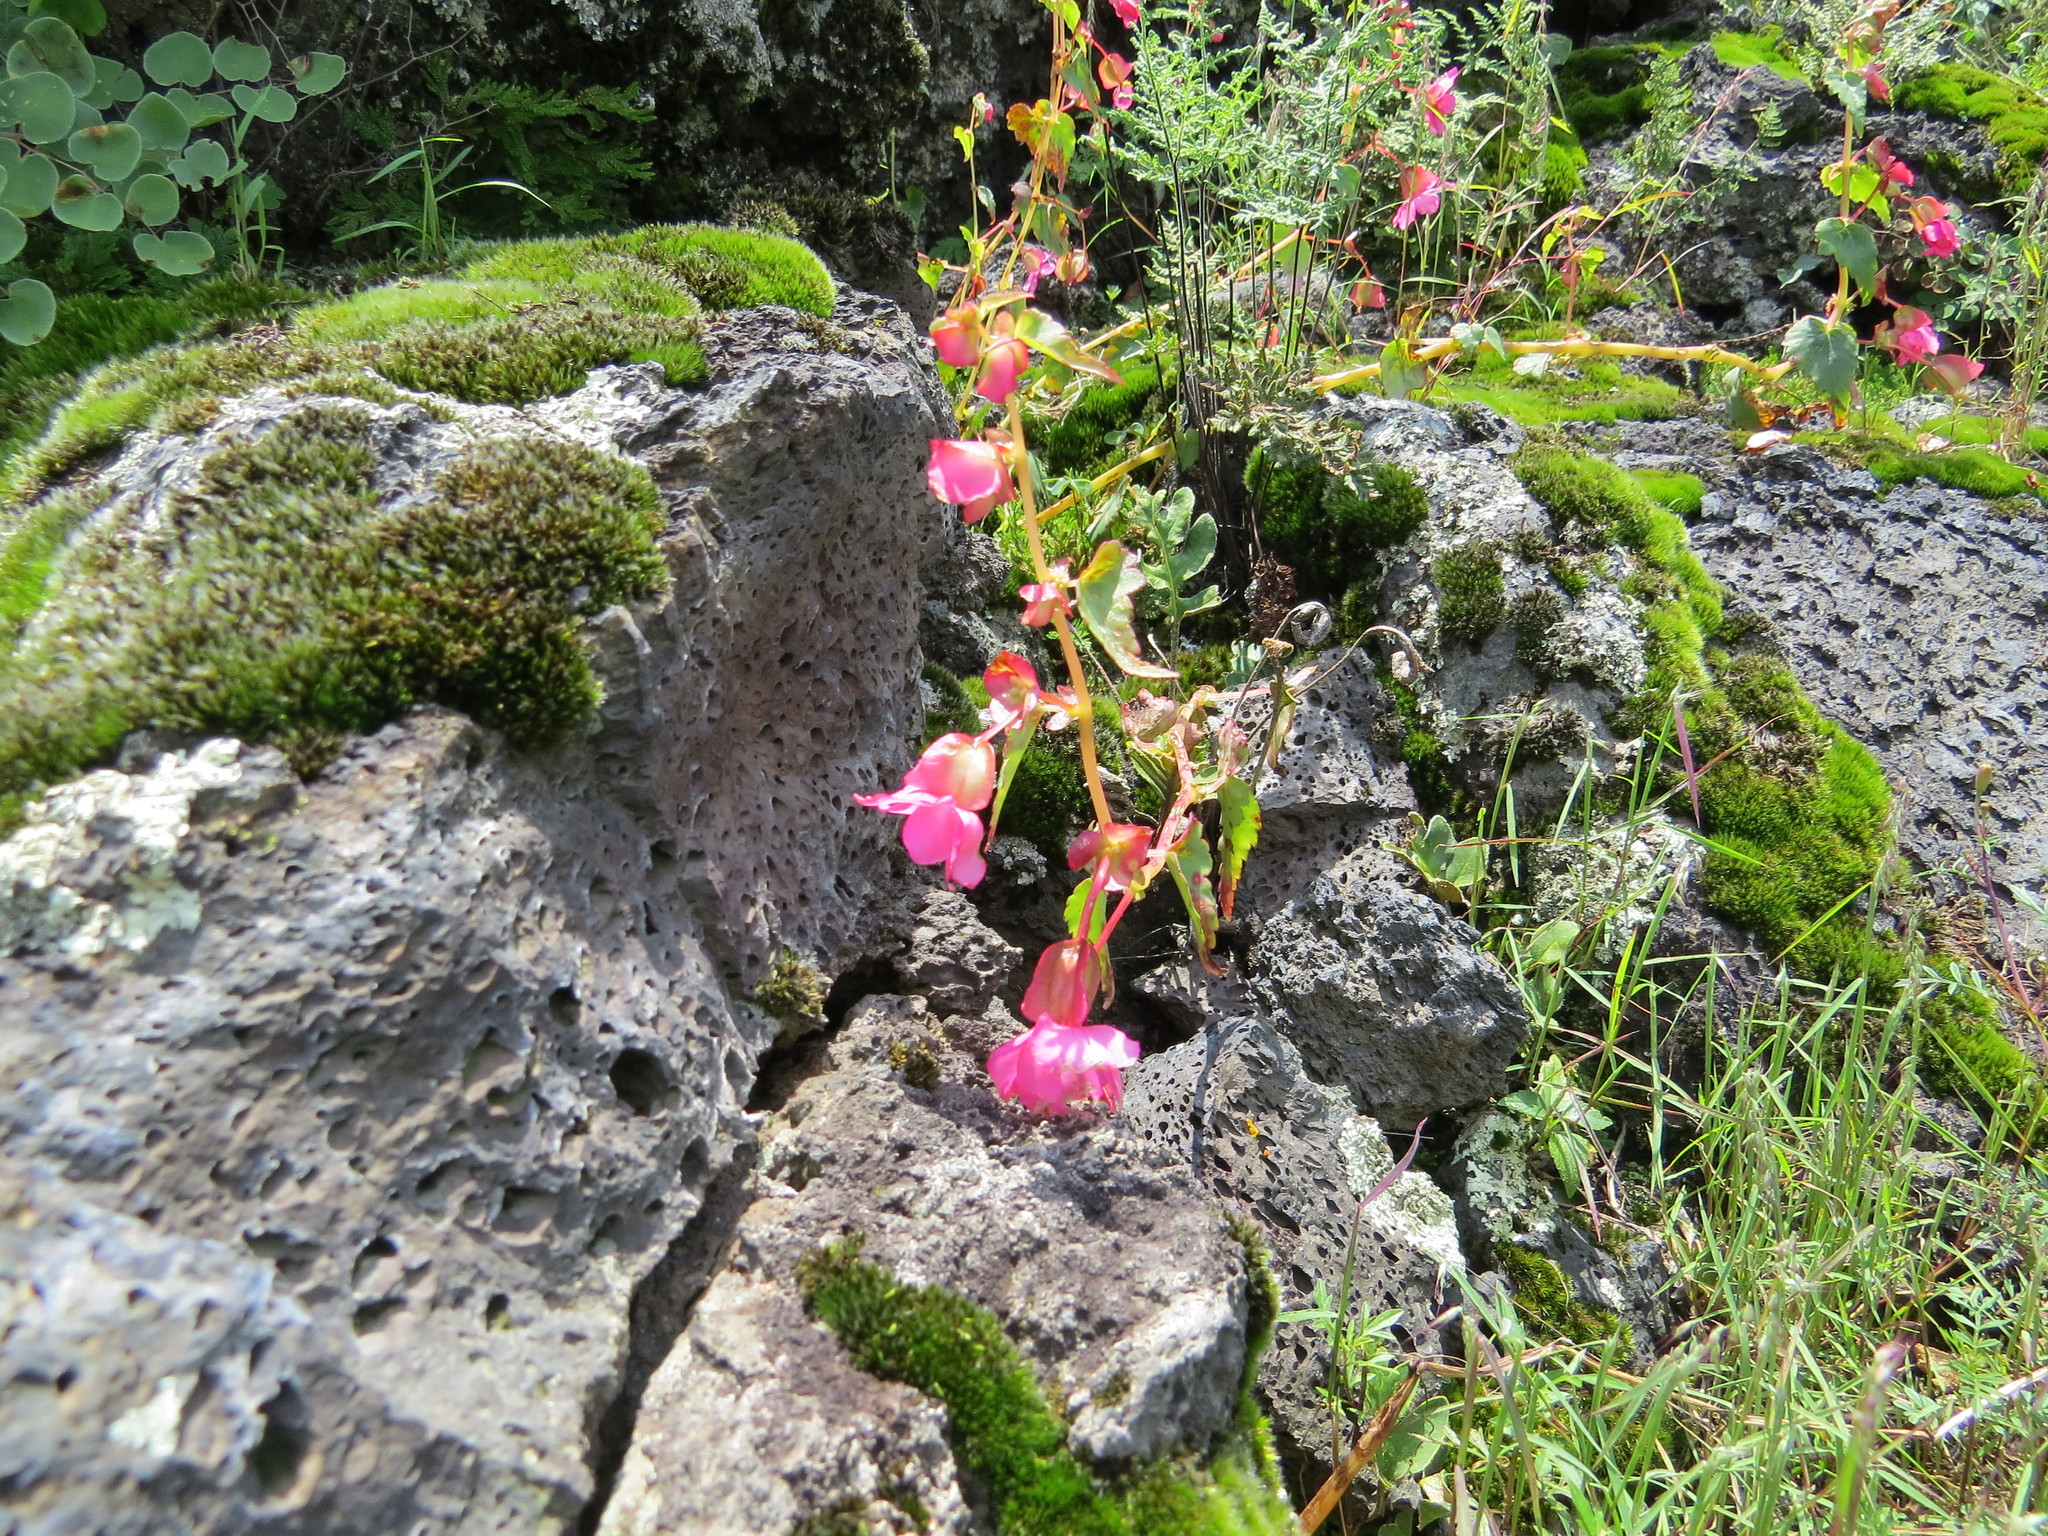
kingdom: Plantae
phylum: Tracheophyta
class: Magnoliopsida
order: Cucurbitales
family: Begoniaceae
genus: Begonia
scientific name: Begonia gracilis
